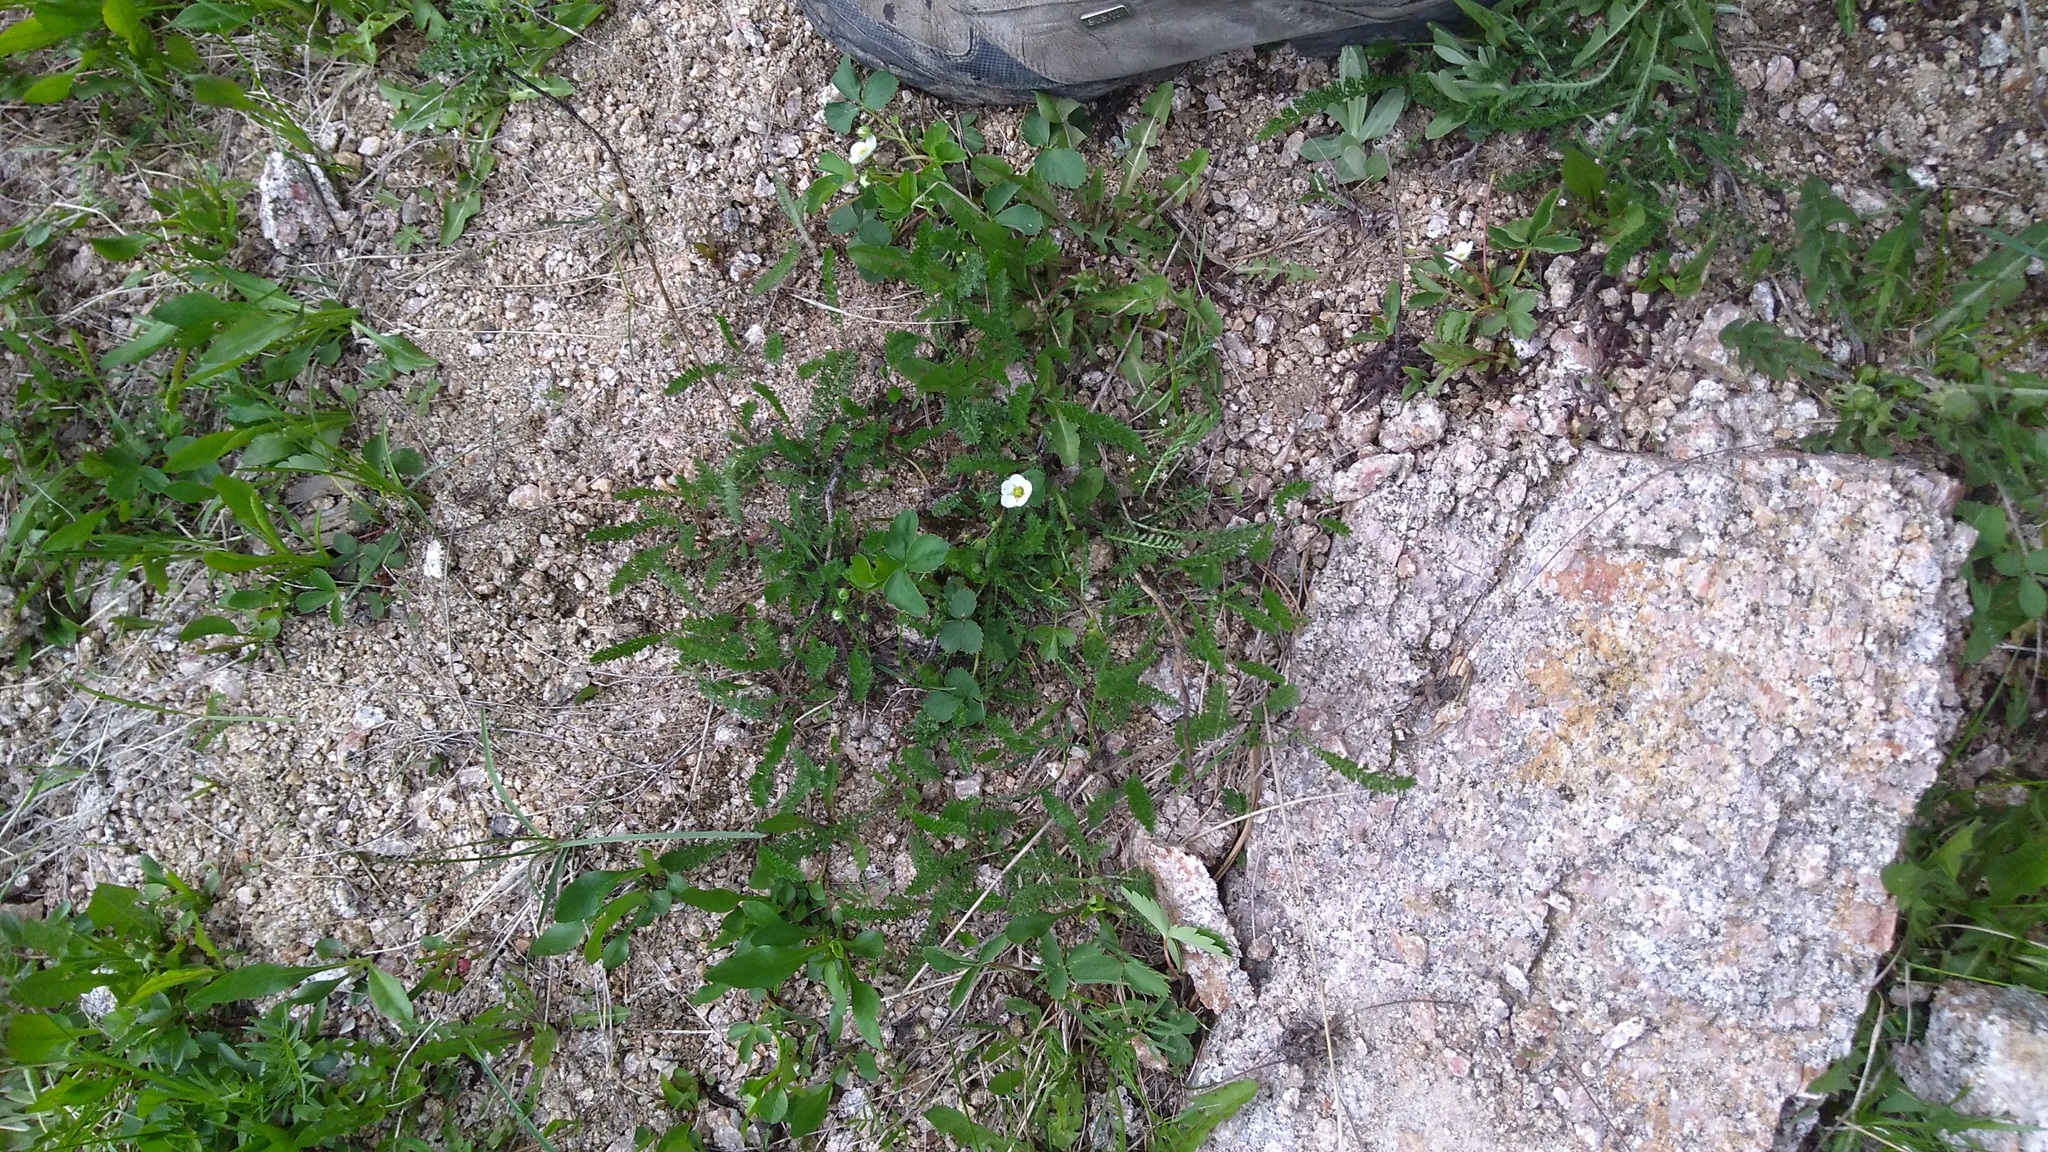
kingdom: Plantae
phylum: Tracheophyta
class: Magnoliopsida
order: Rosales
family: Rosaceae
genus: Fragaria
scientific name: Fragaria virginiana
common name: Thickleaved wild strawberry
